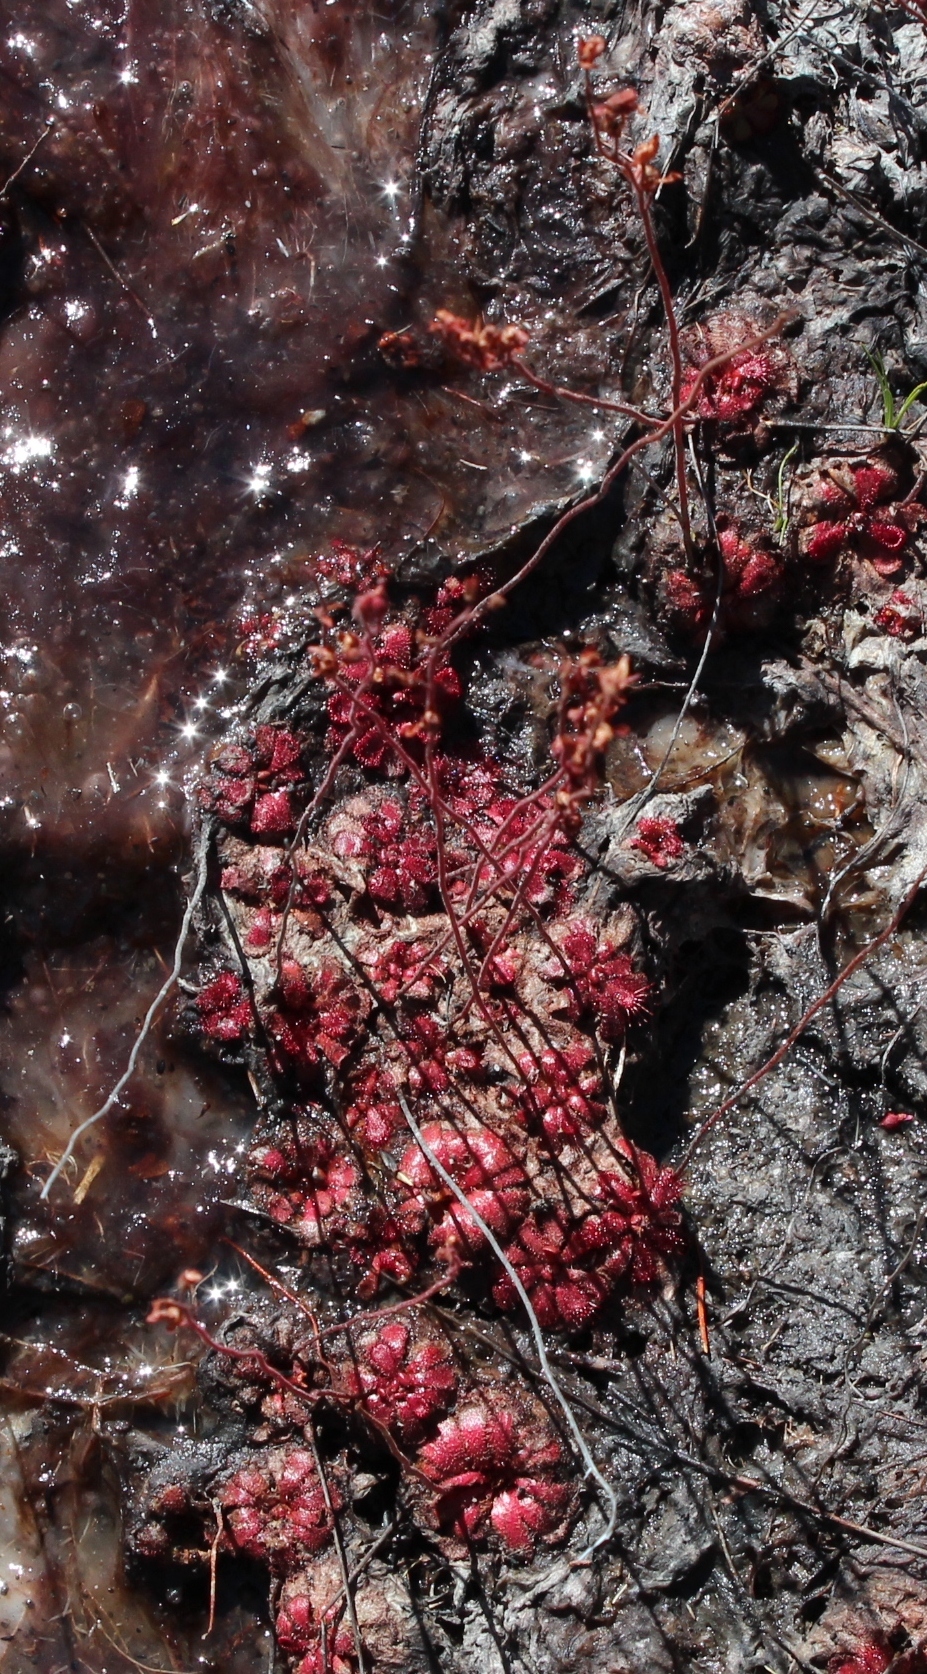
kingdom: Plantae
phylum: Tracheophyta
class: Magnoliopsida
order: Caryophyllales
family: Droseraceae
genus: Drosera
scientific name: Drosera aliciae
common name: Alice sundew
